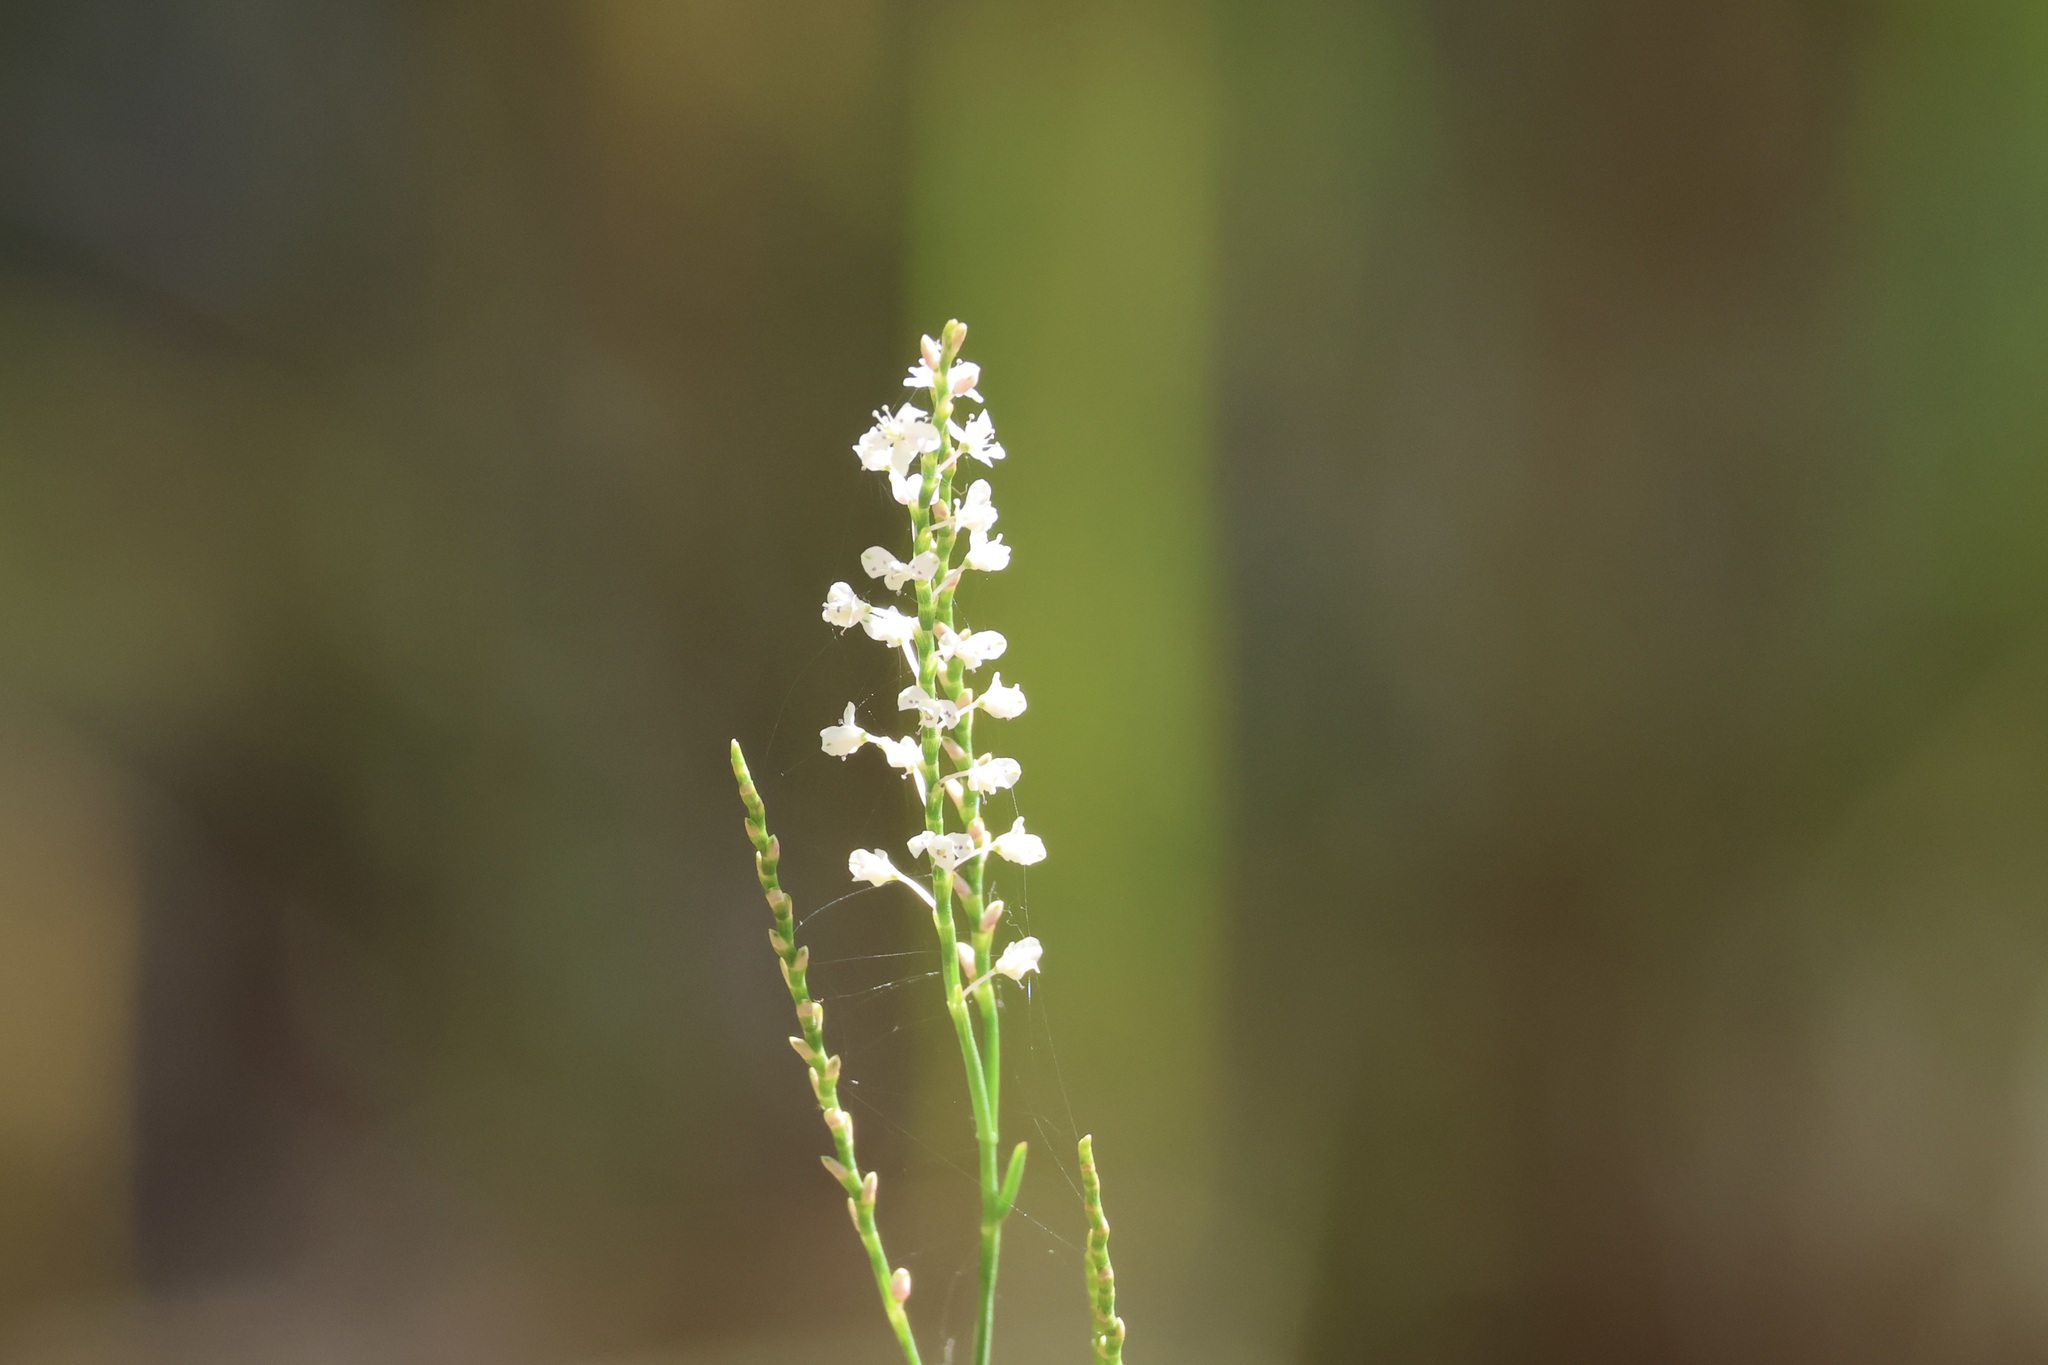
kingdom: Plantae
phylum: Tracheophyta
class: Magnoliopsida
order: Caryophyllales
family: Polygonaceae
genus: Polygonella
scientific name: Polygonella articulata
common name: Coastal jointweed
